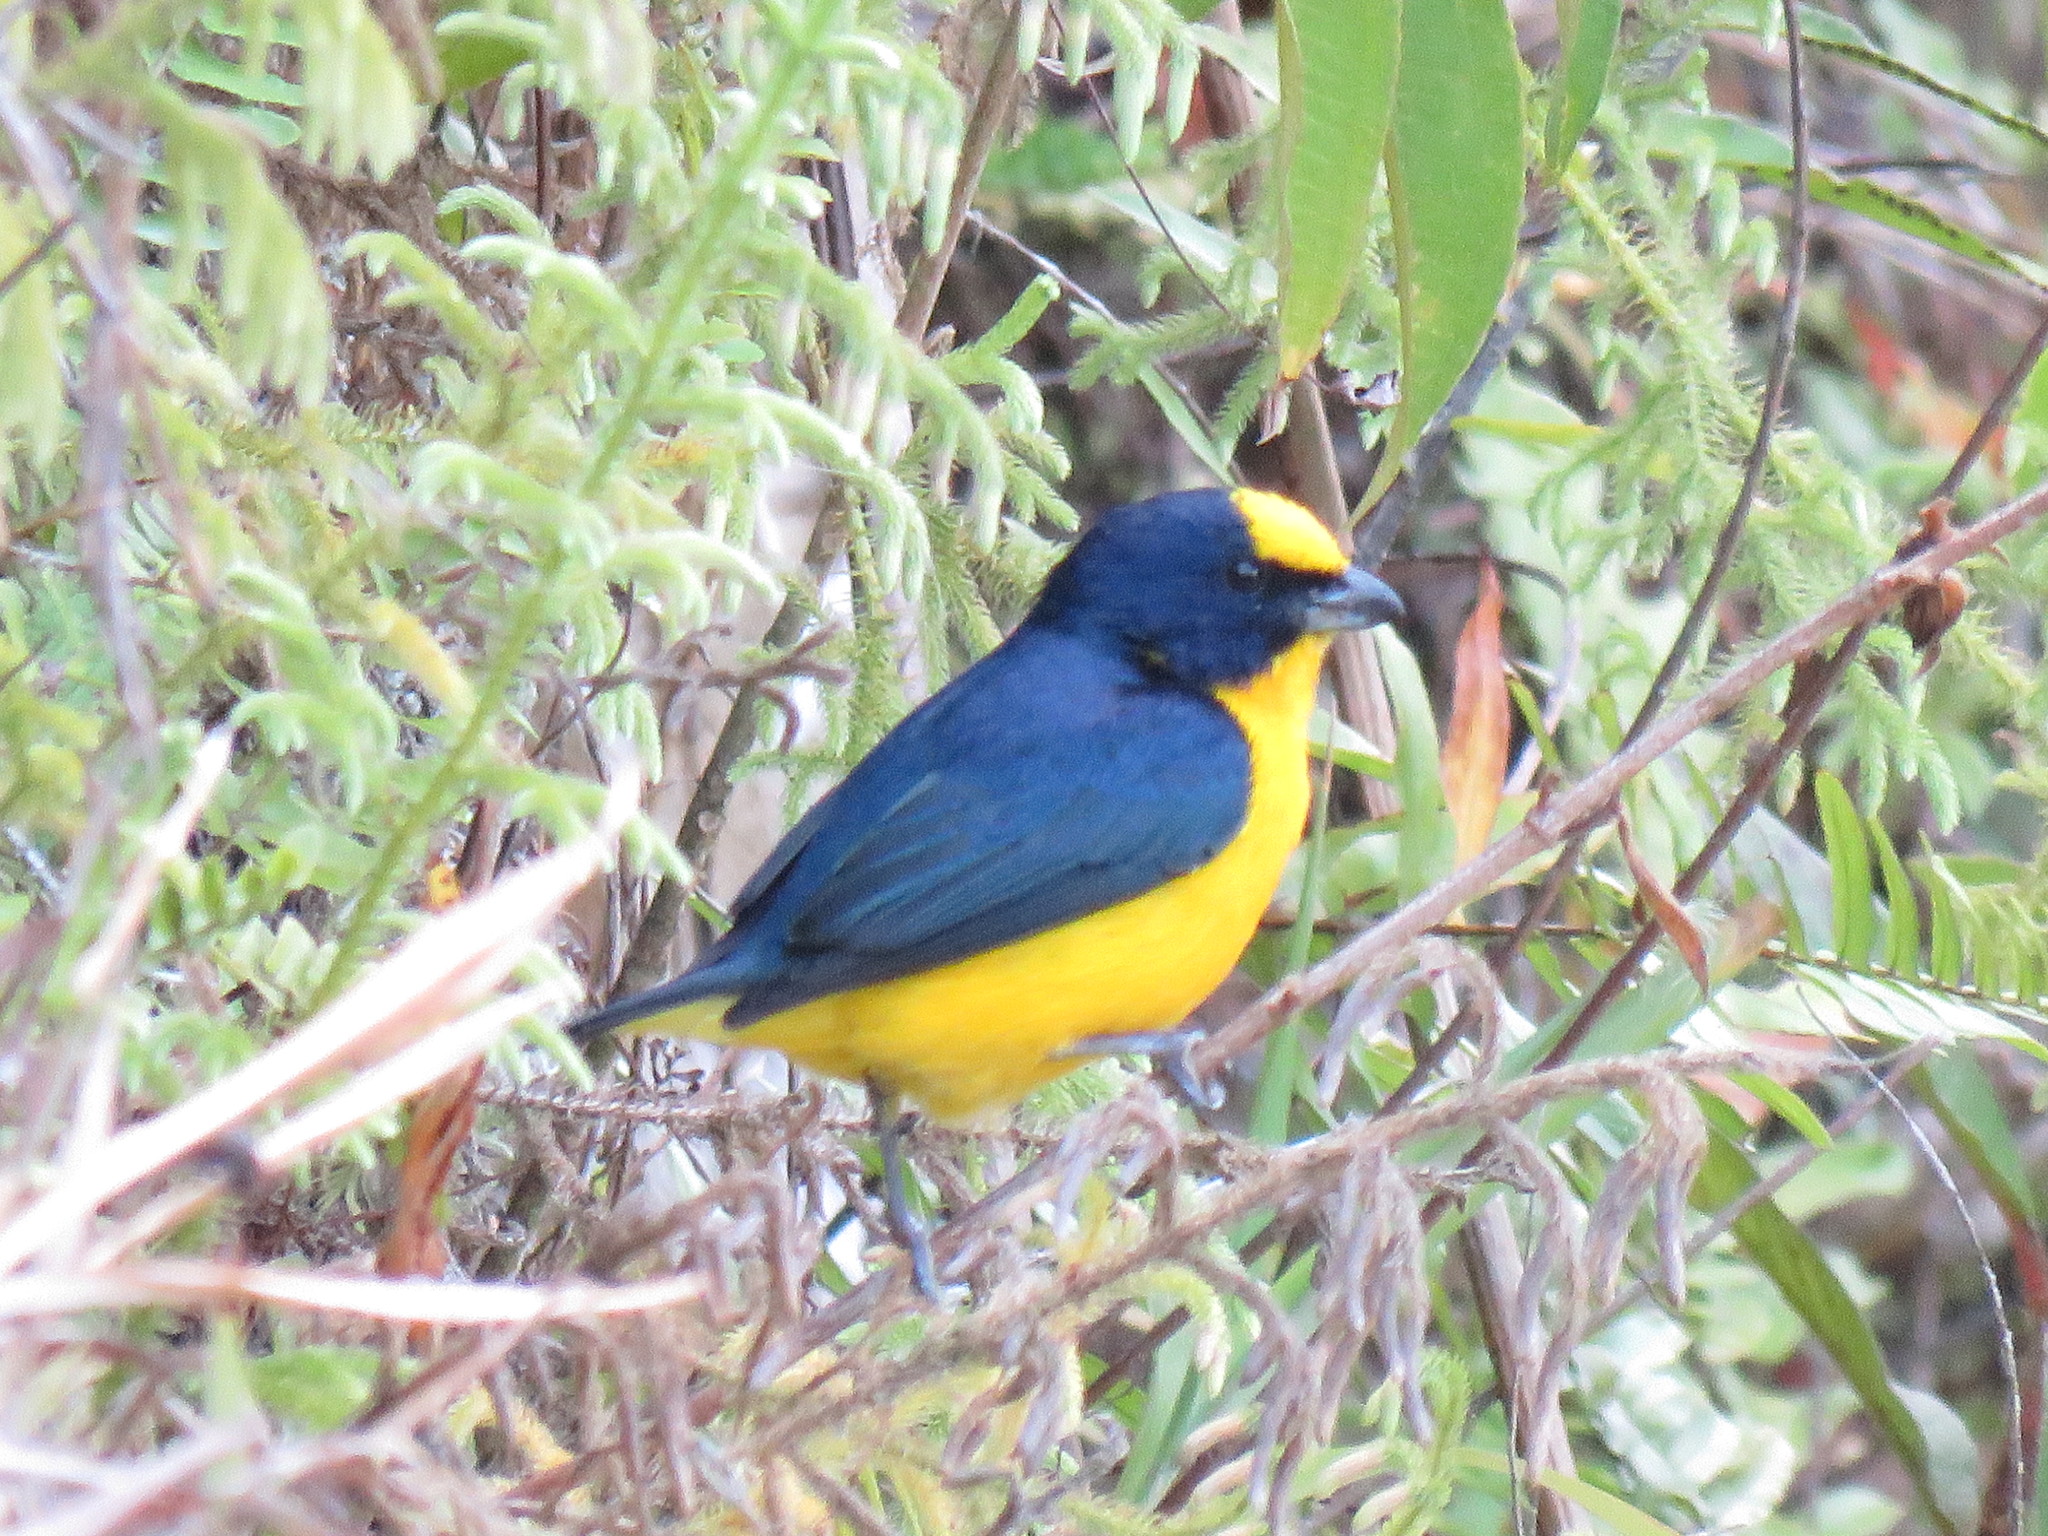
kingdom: Animalia
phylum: Chordata
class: Aves
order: Passeriformes
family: Fringillidae
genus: Euphonia
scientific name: Euphonia laniirostris
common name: Thick-billed euphonia
